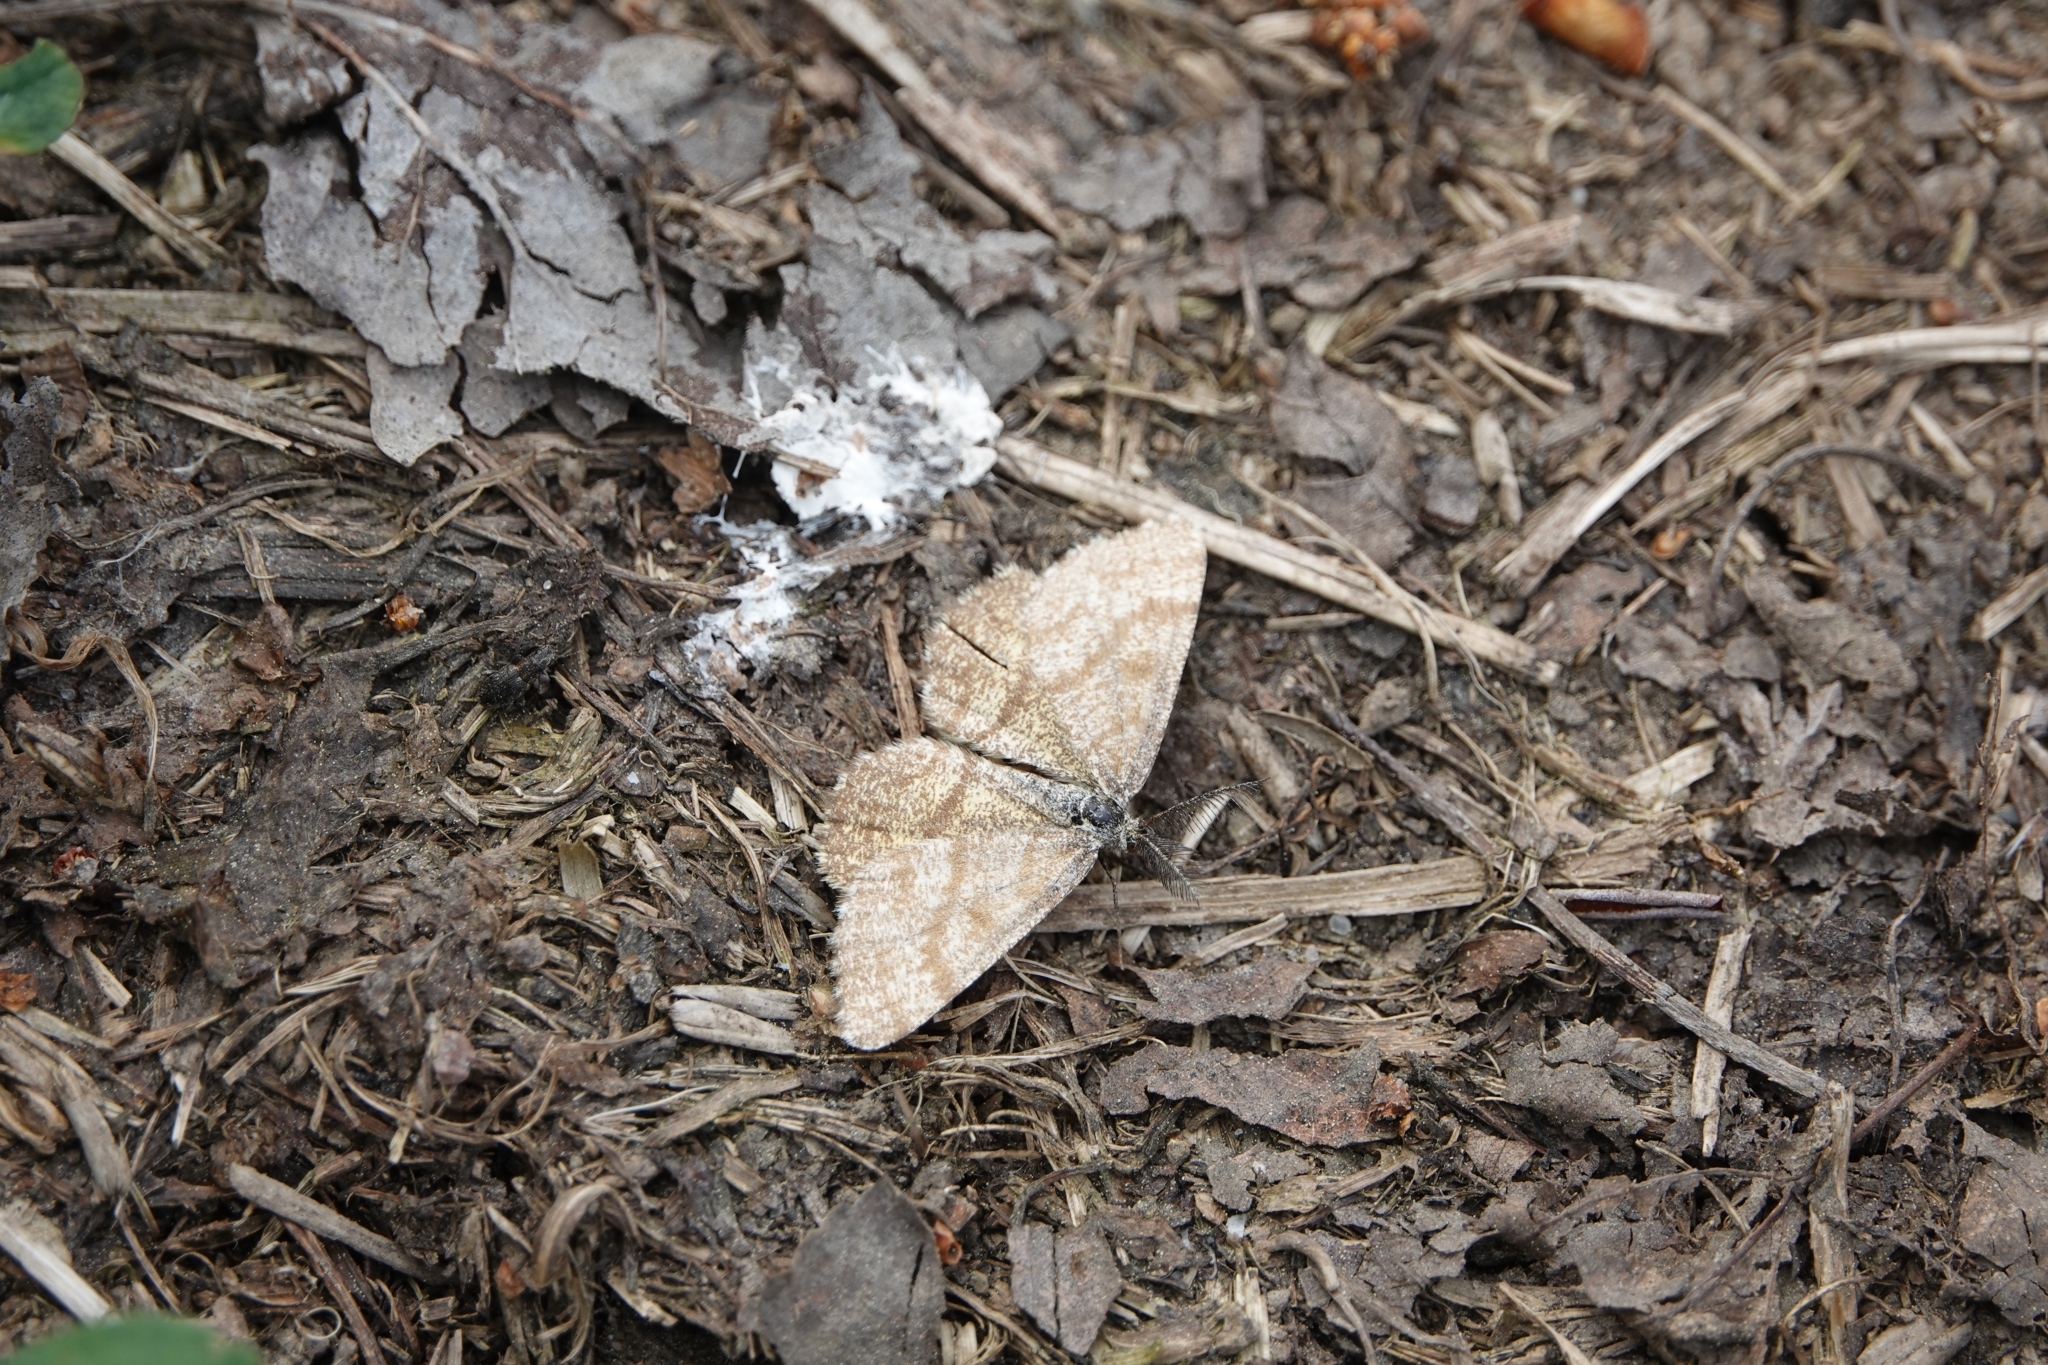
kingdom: Animalia
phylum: Arthropoda
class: Insecta
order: Lepidoptera
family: Geometridae
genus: Ematurga
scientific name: Ematurga atomaria
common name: Common heath
